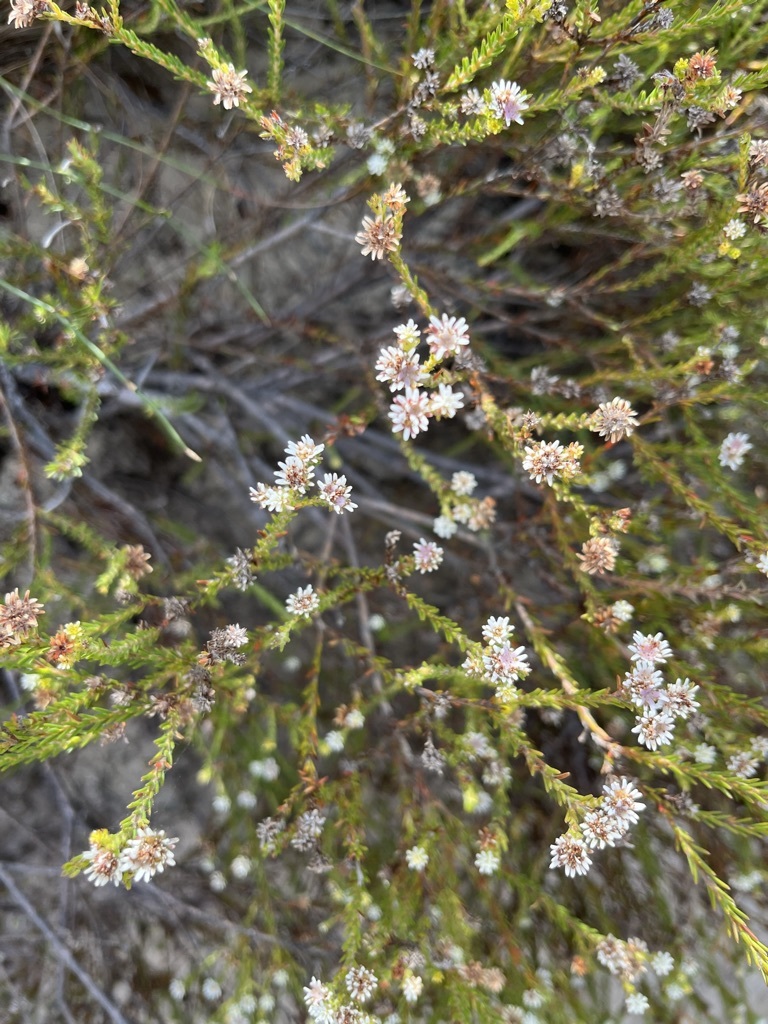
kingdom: Plantae
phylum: Tracheophyta
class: Magnoliopsida
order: Bruniales
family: Bruniaceae
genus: Staavia
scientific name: Staavia radiata
